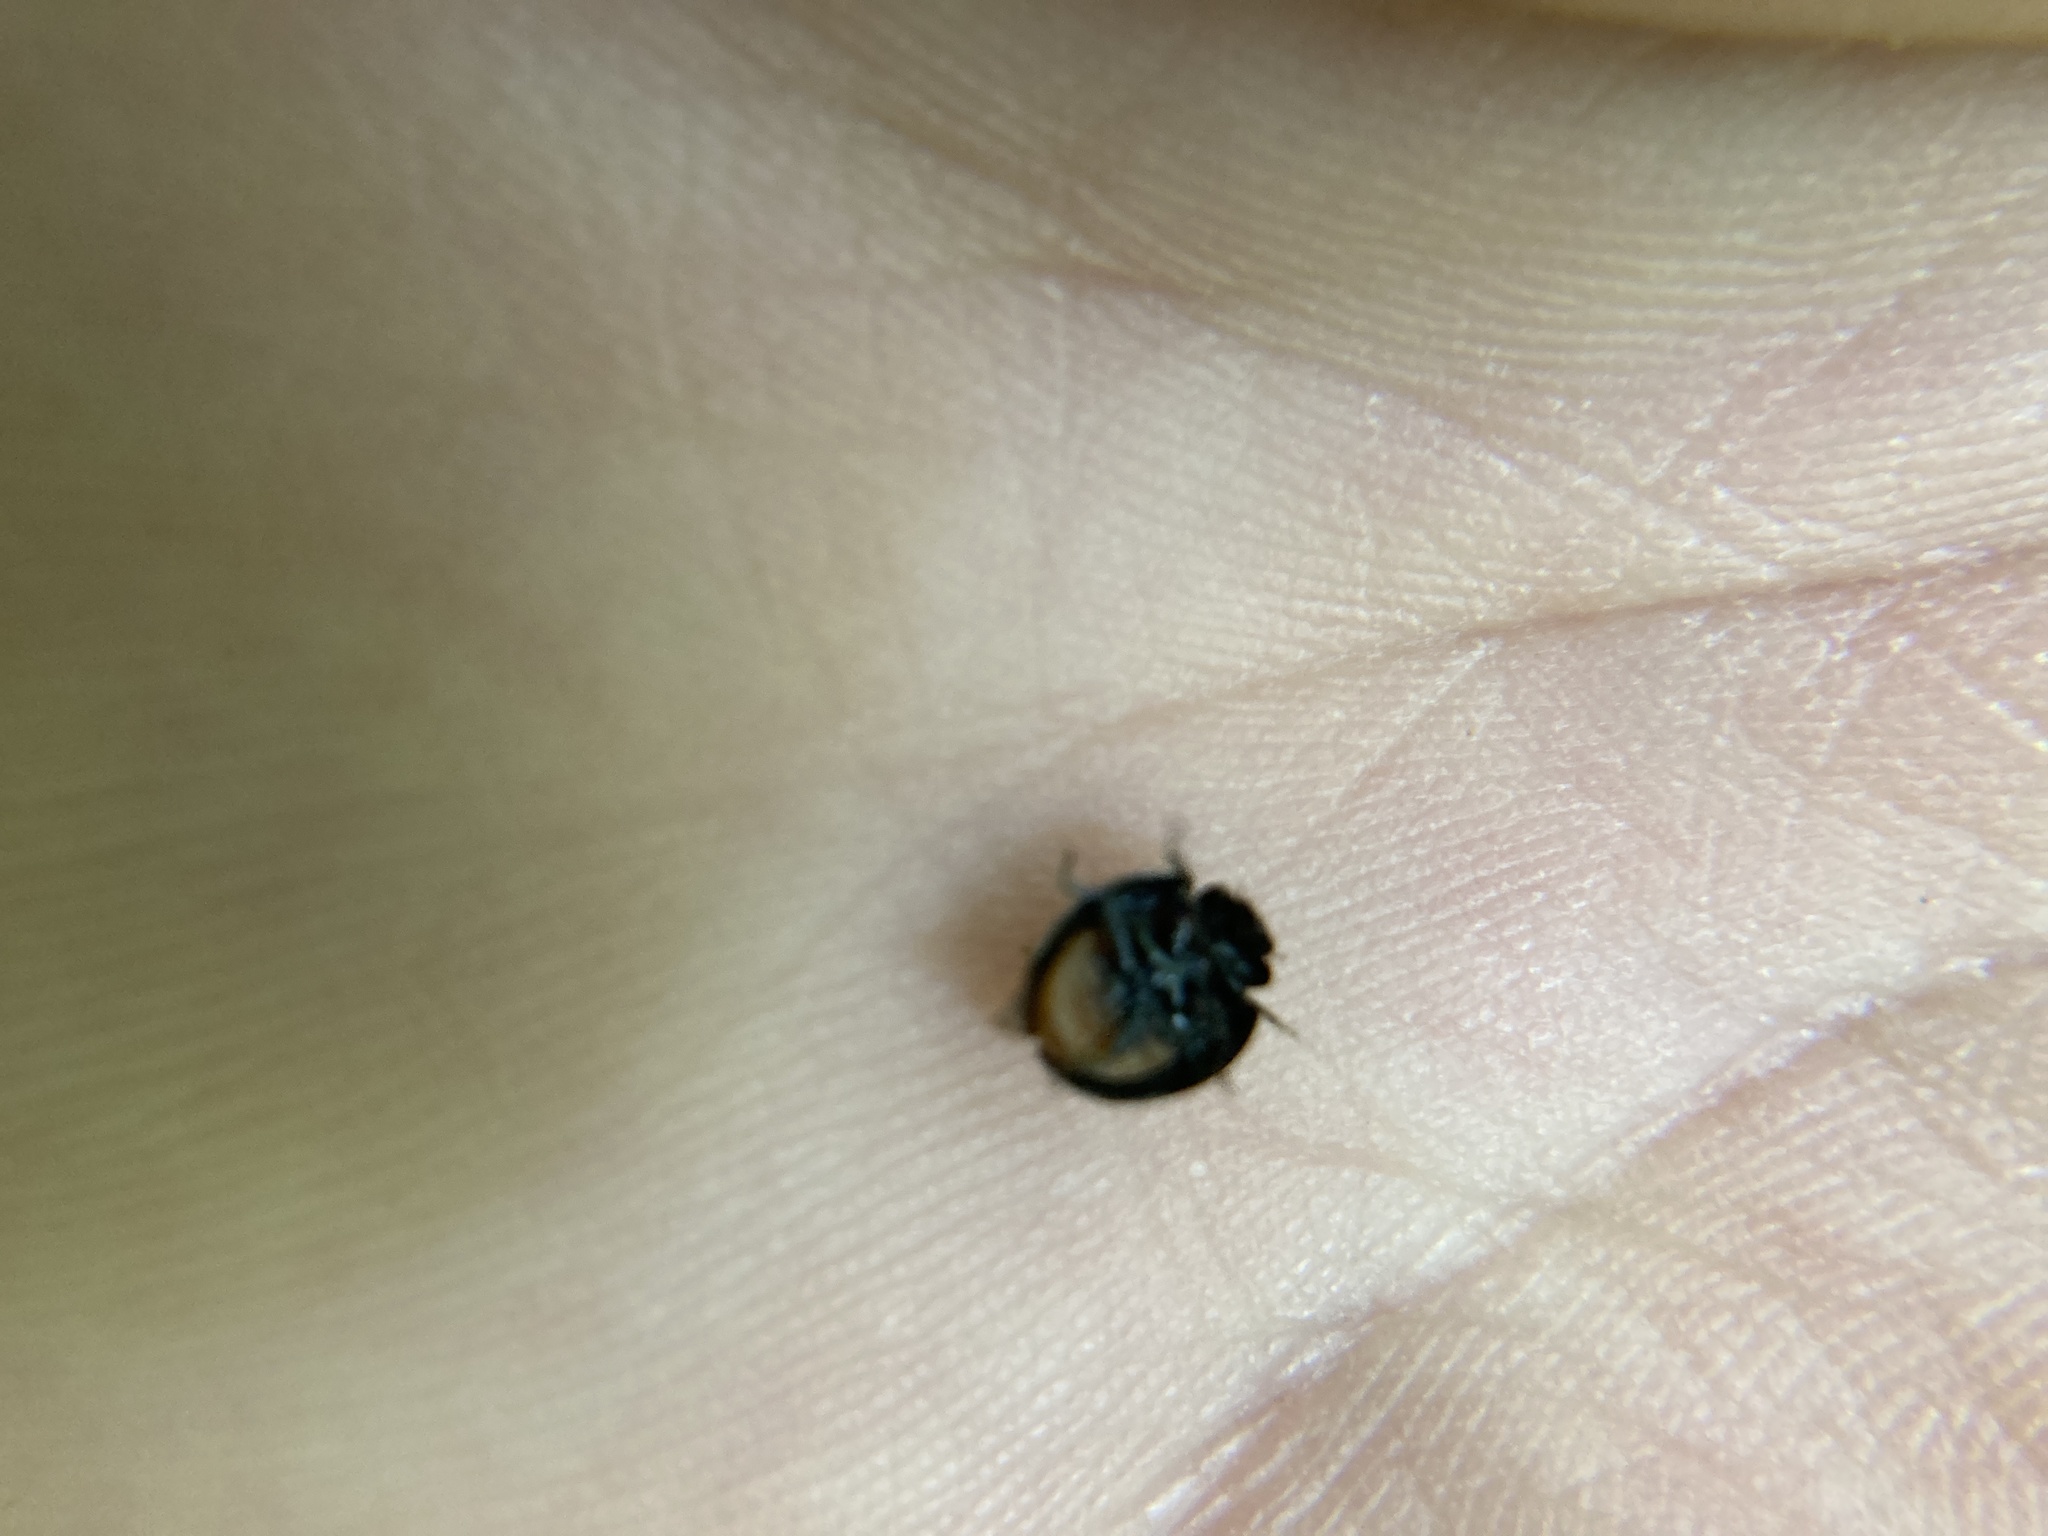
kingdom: Animalia
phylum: Arthropoda
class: Insecta
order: Coleoptera
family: Coccinellidae
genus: Chilocorus
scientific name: Chilocorus stigma
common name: Twicestabbed lady beetle
